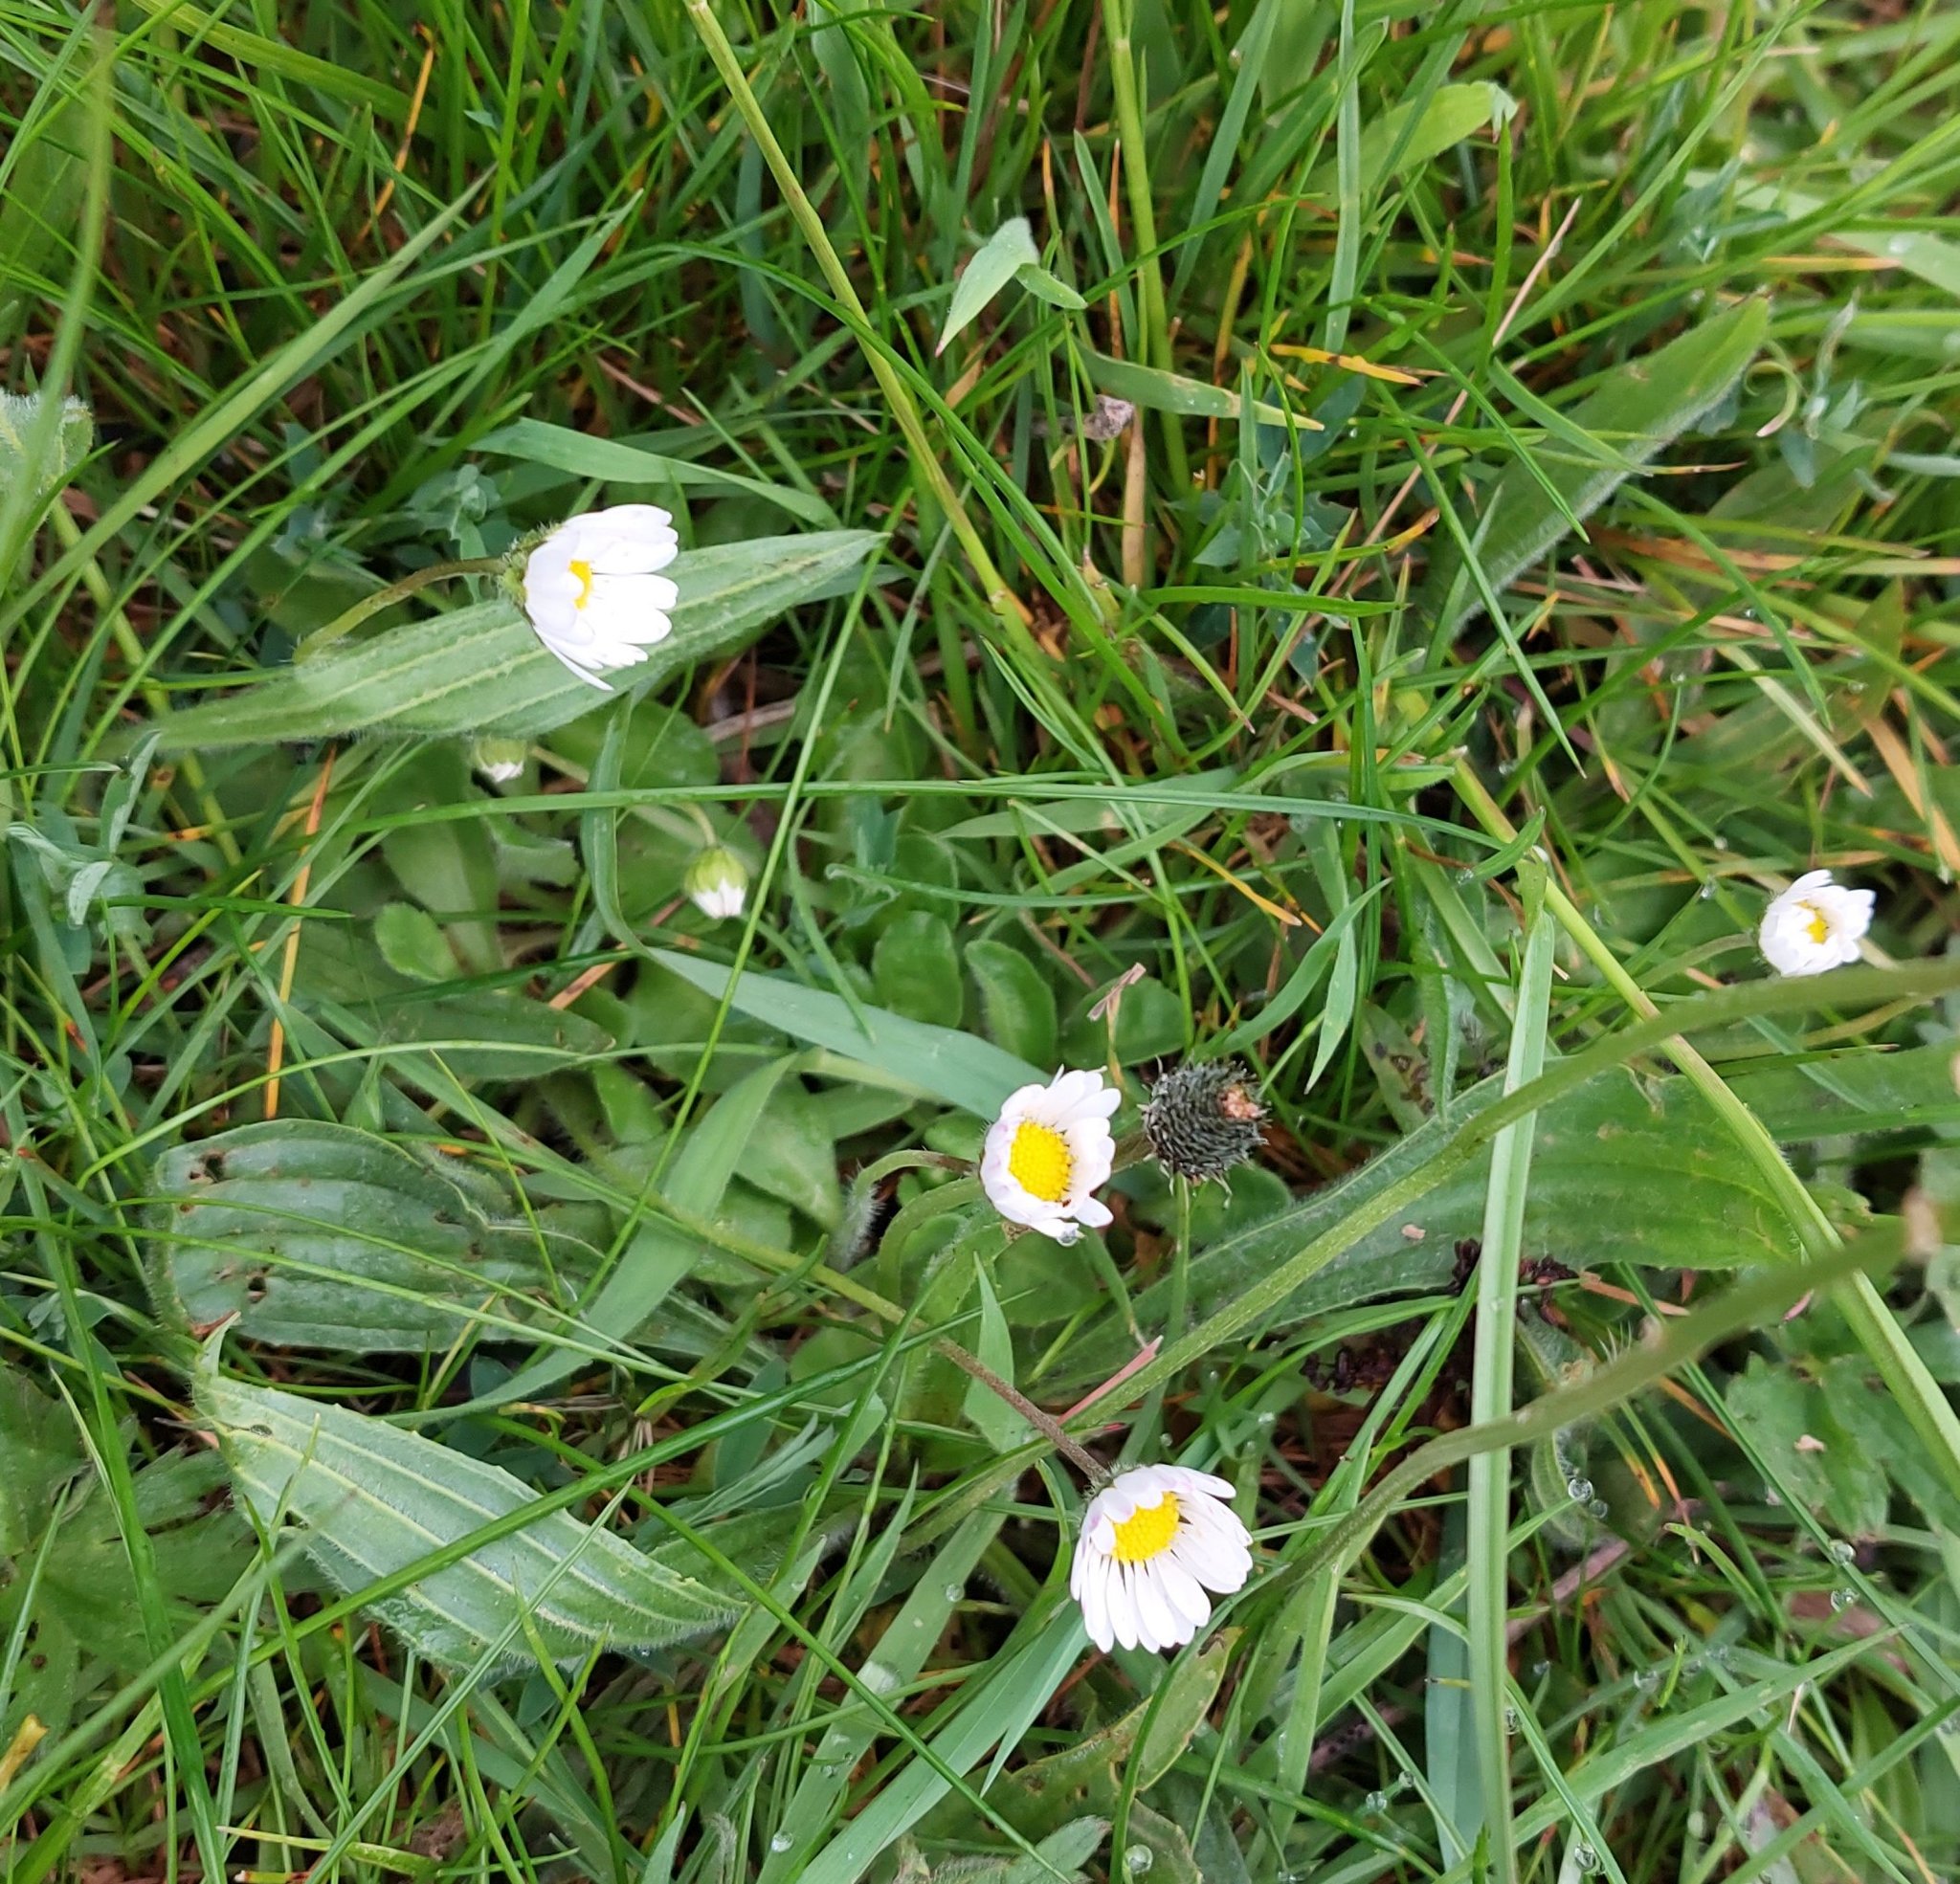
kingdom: Plantae
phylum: Tracheophyta
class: Magnoliopsida
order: Asterales
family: Asteraceae
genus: Bellis
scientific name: Bellis perennis
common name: Lawndaisy
